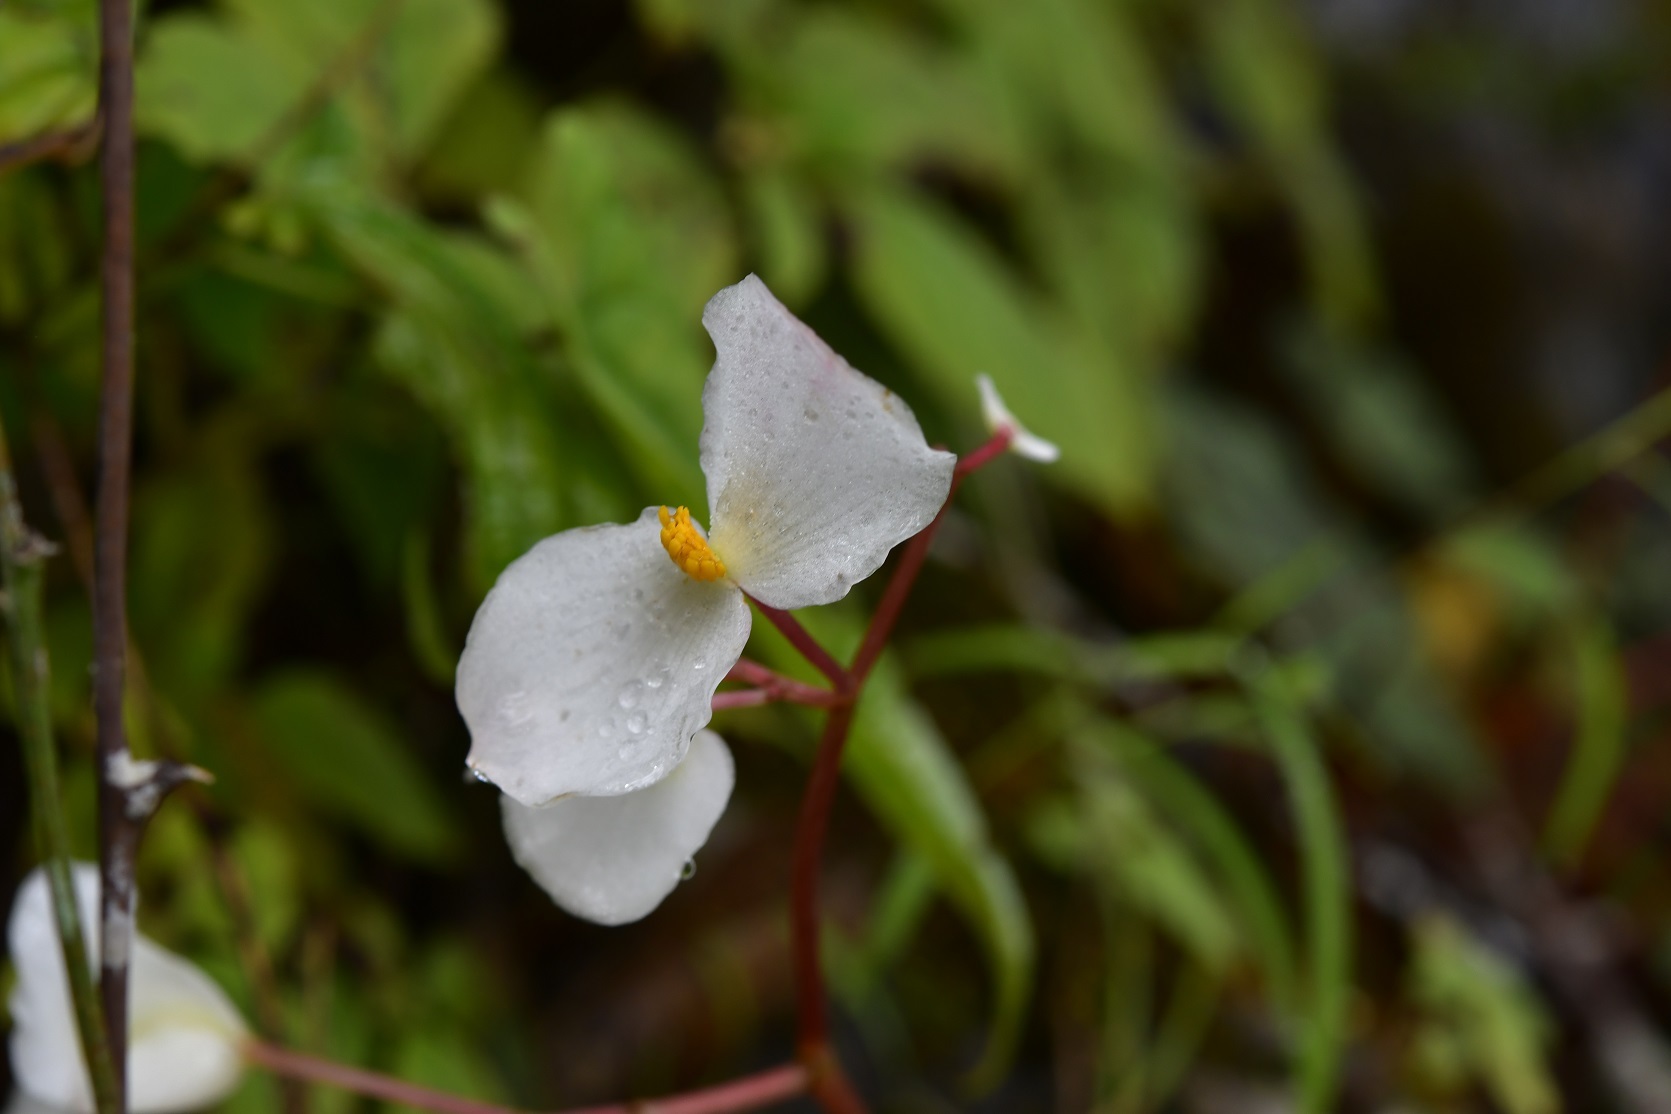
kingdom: Plantae
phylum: Tracheophyta
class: Magnoliopsida
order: Cucurbitales
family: Begoniaceae
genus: Begonia
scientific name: Begonia plebeja
